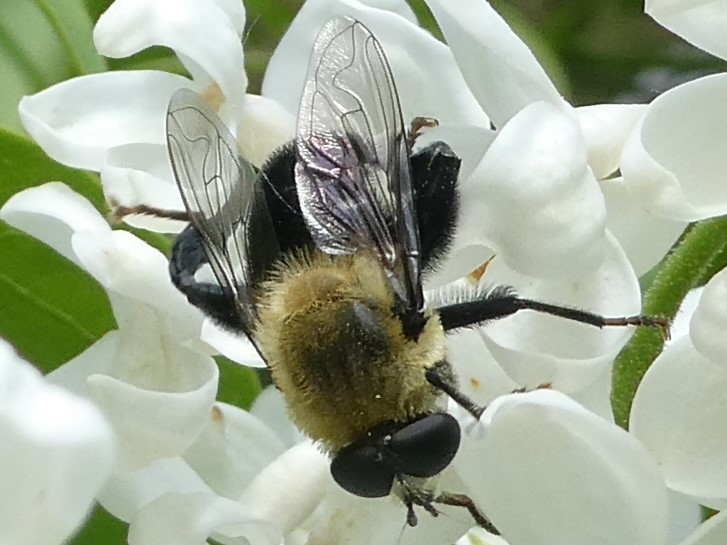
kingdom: Animalia
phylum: Arthropoda
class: Insecta
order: Diptera
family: Syrphidae
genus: Imatisma
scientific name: Imatisma bautias
